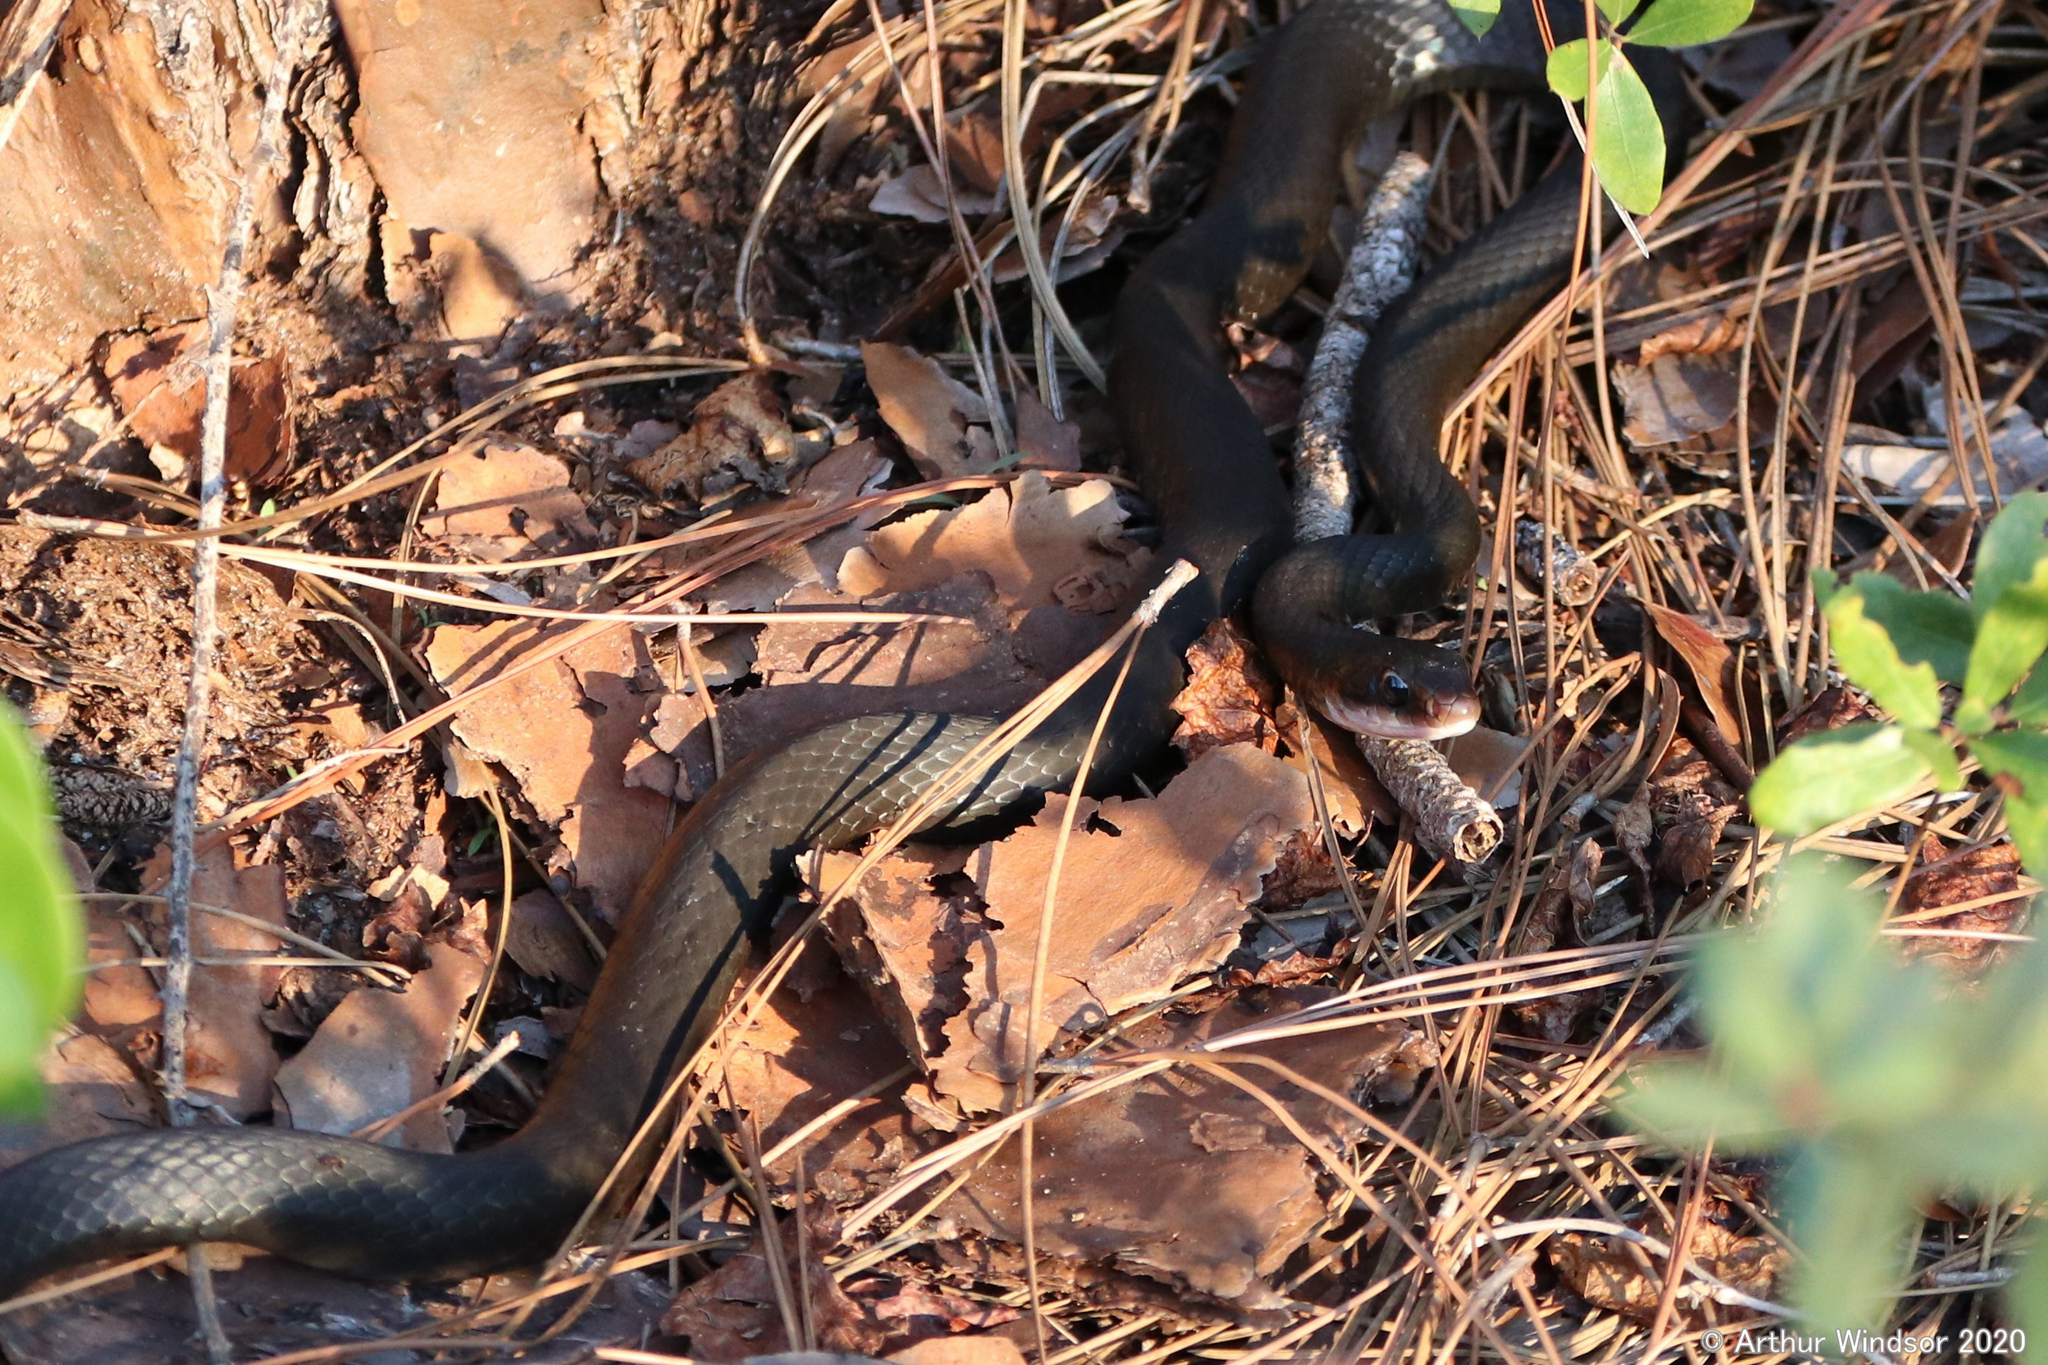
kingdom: Animalia
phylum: Chordata
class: Squamata
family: Colubridae
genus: Coluber
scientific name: Coluber constrictor
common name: Eastern racer
